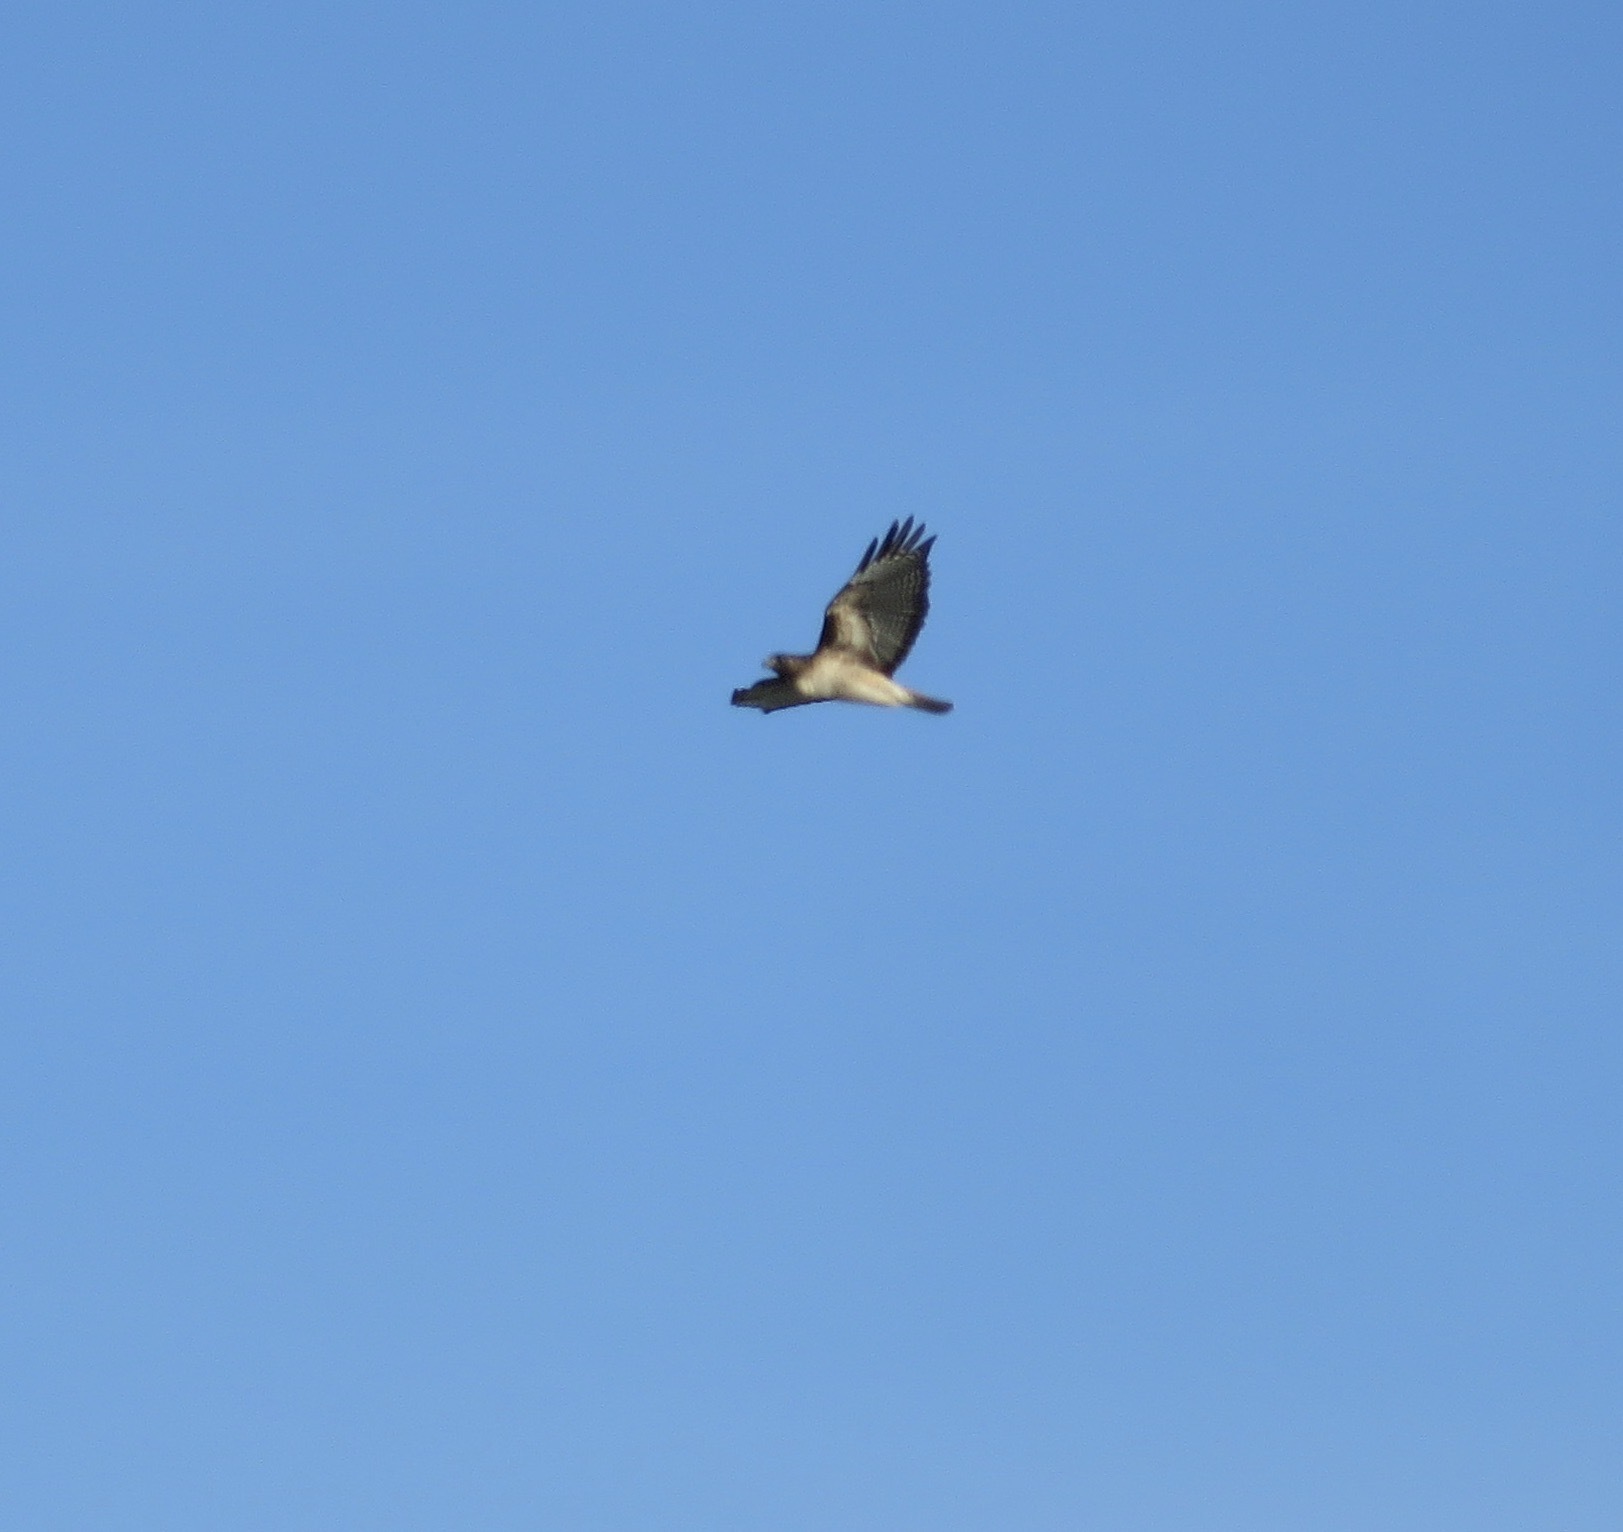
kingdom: Animalia
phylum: Chordata
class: Aves
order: Accipitriformes
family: Accipitridae
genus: Buteo
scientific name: Buteo jamaicensis
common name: Red-tailed hawk
